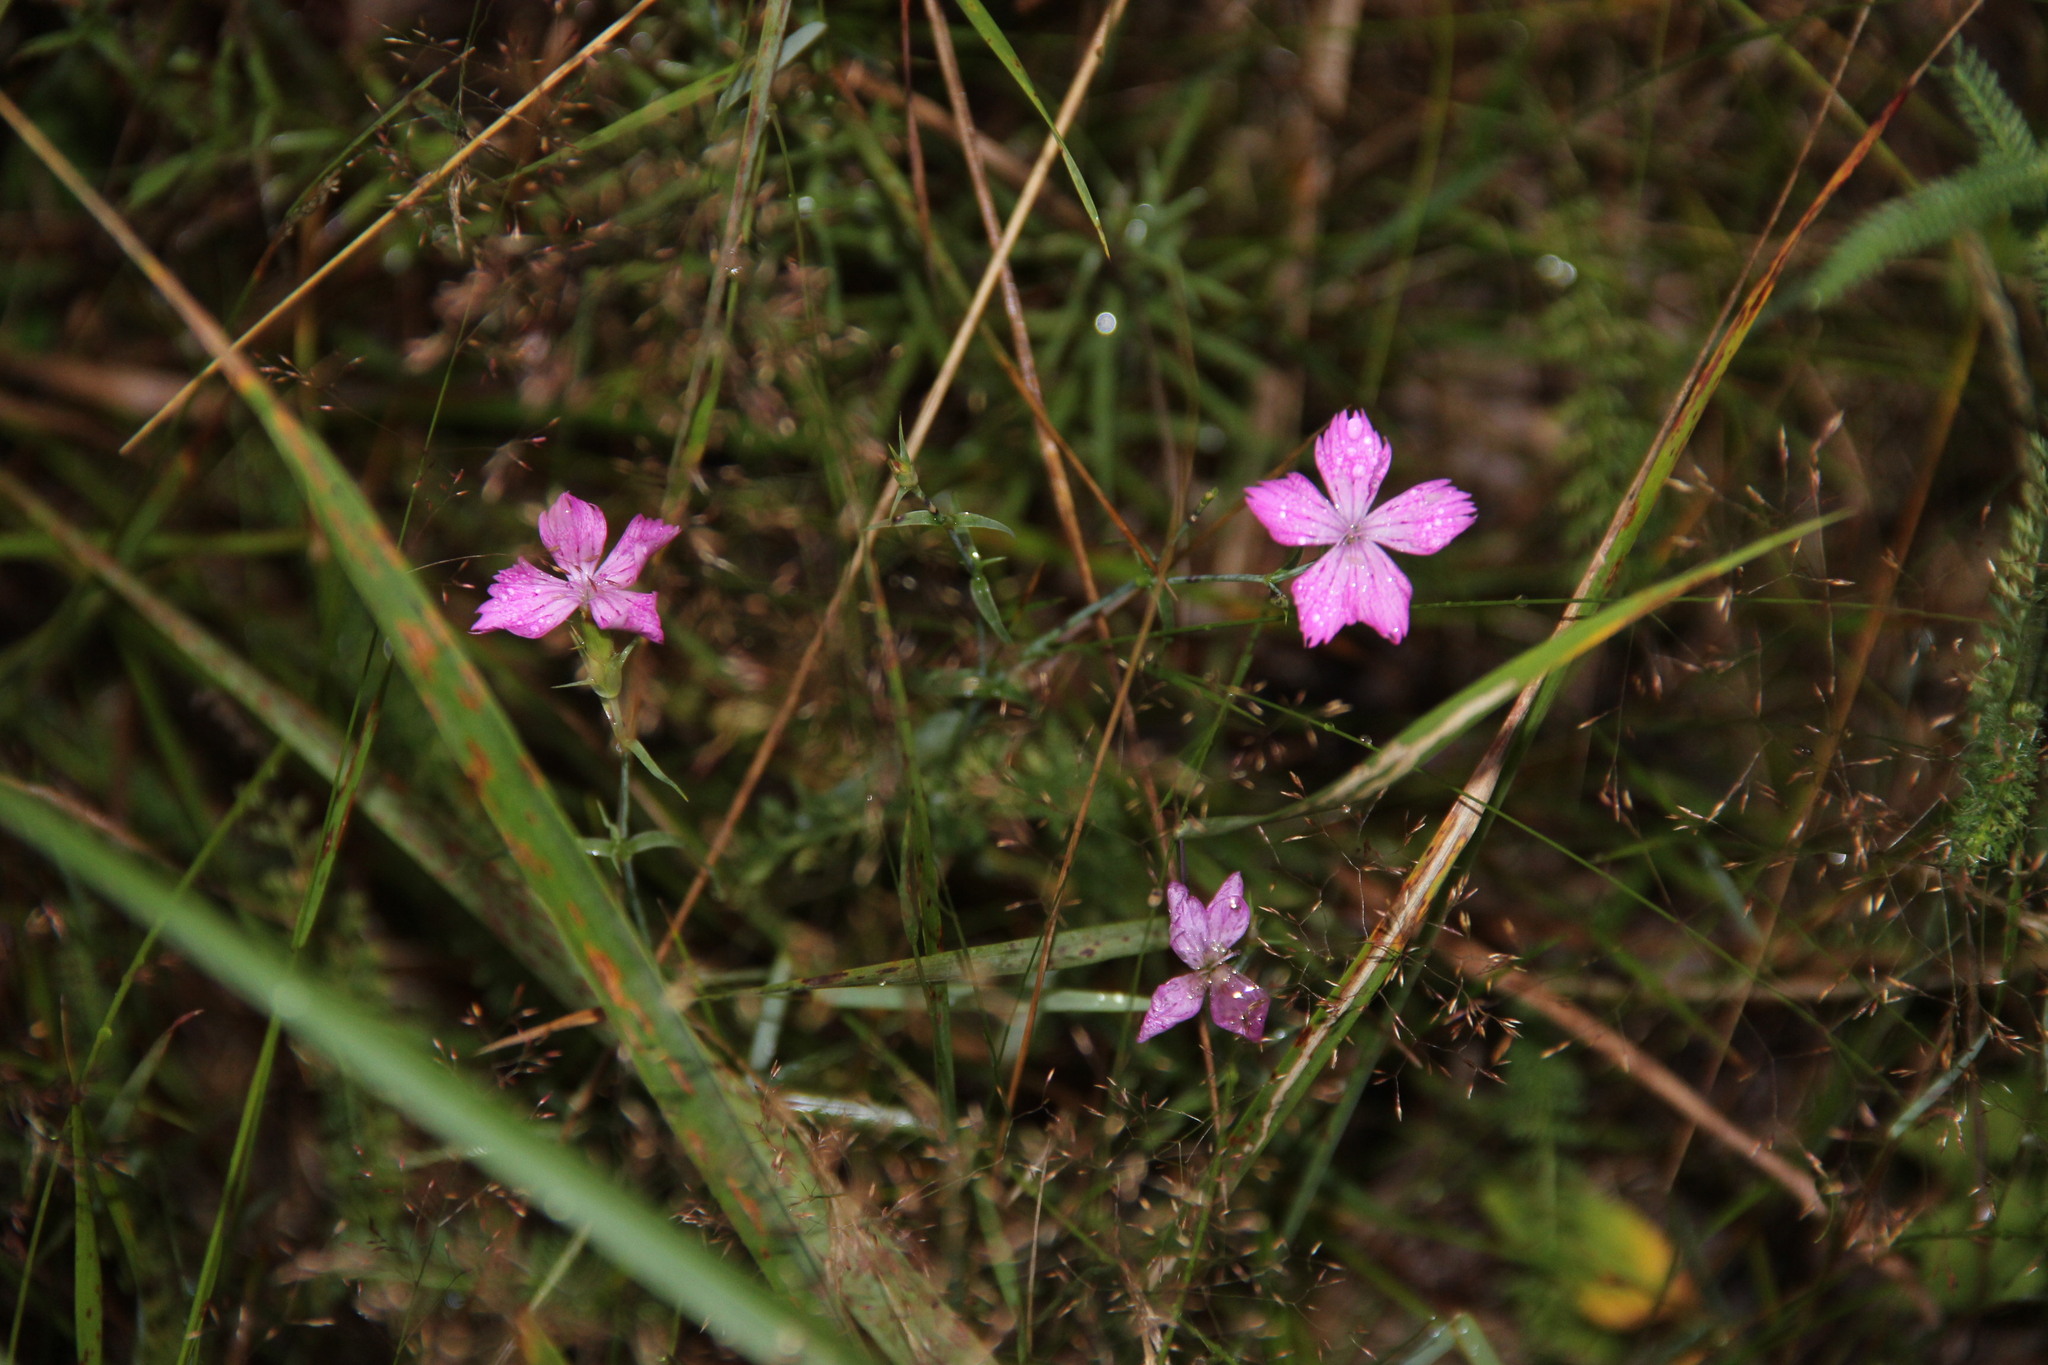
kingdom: Plantae
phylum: Tracheophyta
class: Magnoliopsida
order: Caryophyllales
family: Caryophyllaceae
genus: Dianthus
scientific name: Dianthus chinensis
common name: Rainbow pink
